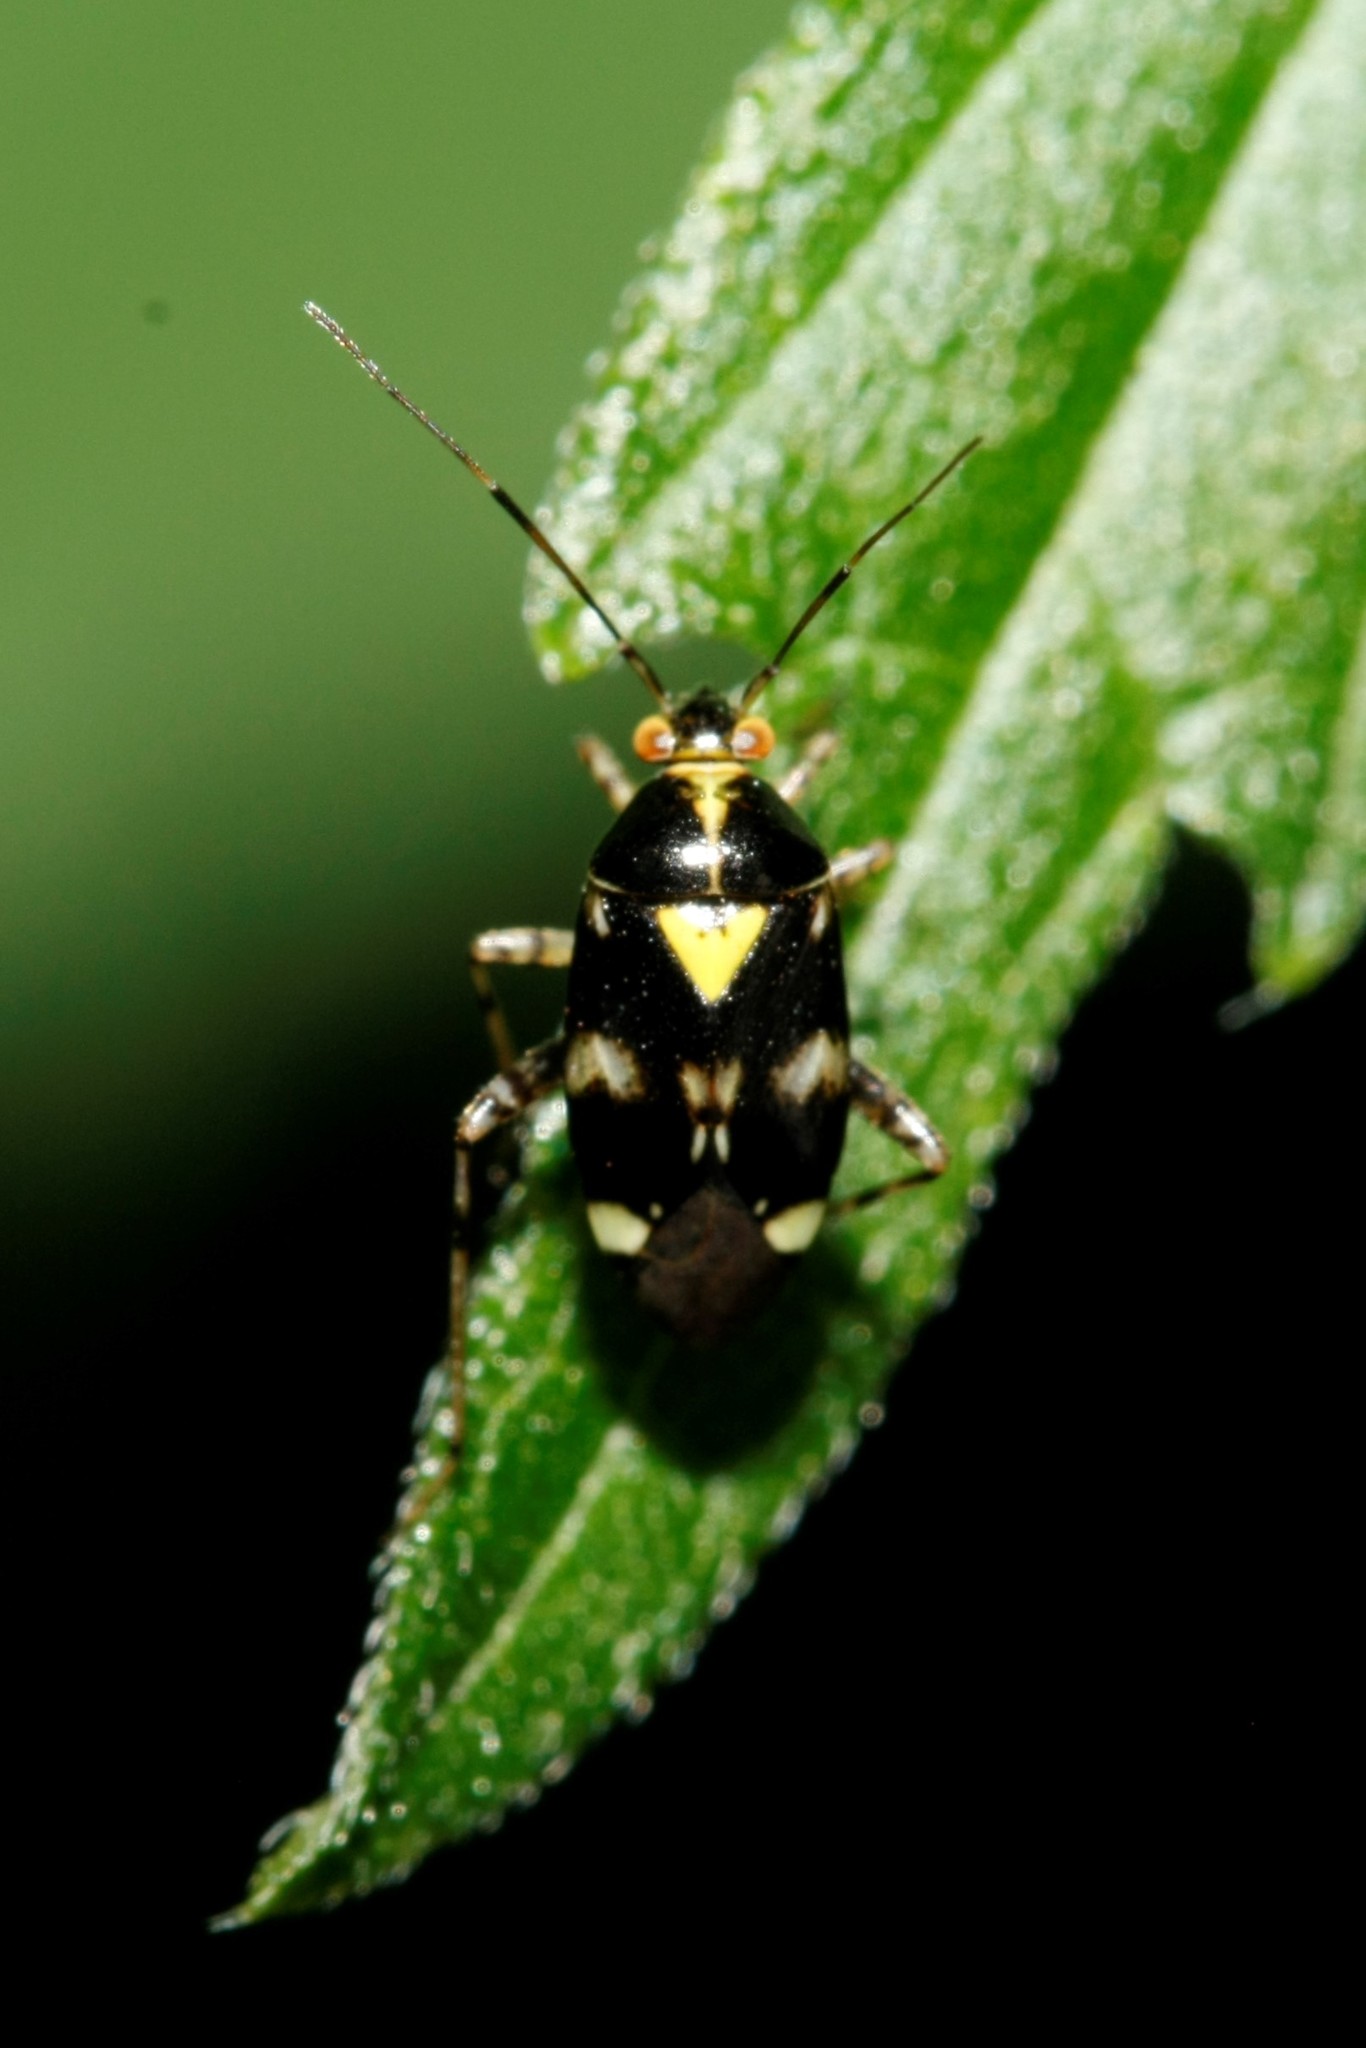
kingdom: Animalia
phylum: Arthropoda
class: Insecta
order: Hemiptera
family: Miridae
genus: Liocoris
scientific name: Liocoris tripustulatus
